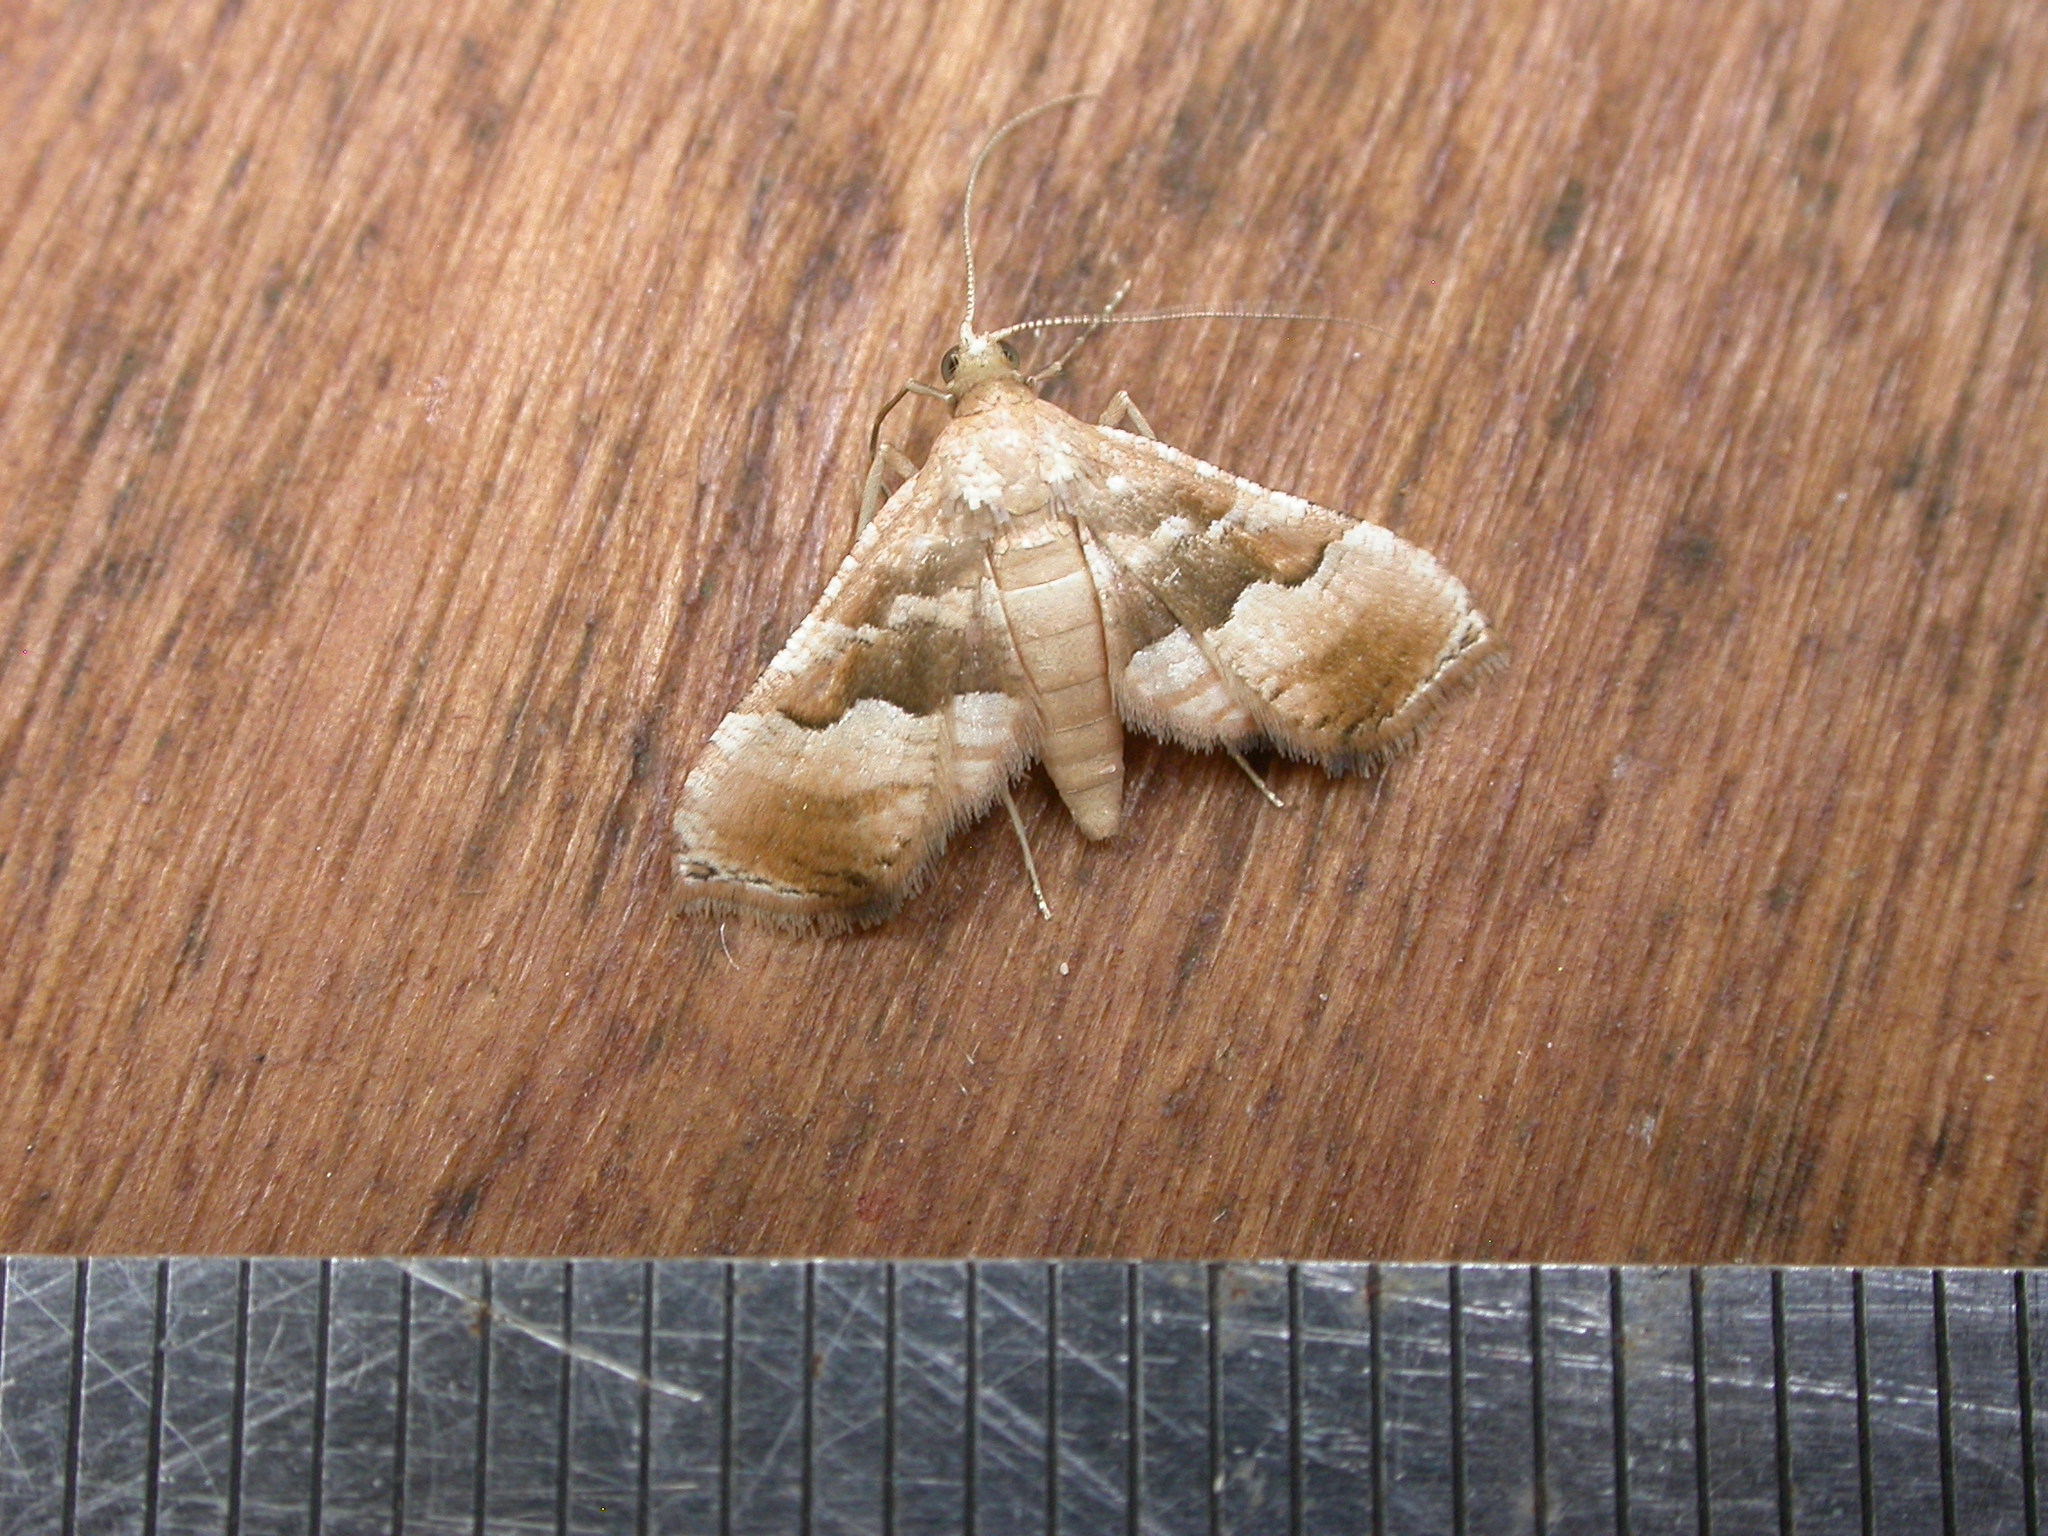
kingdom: Animalia
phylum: Arthropoda
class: Insecta
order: Lepidoptera
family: Thyrididae
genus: Addaea
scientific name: Addaea pusilla
